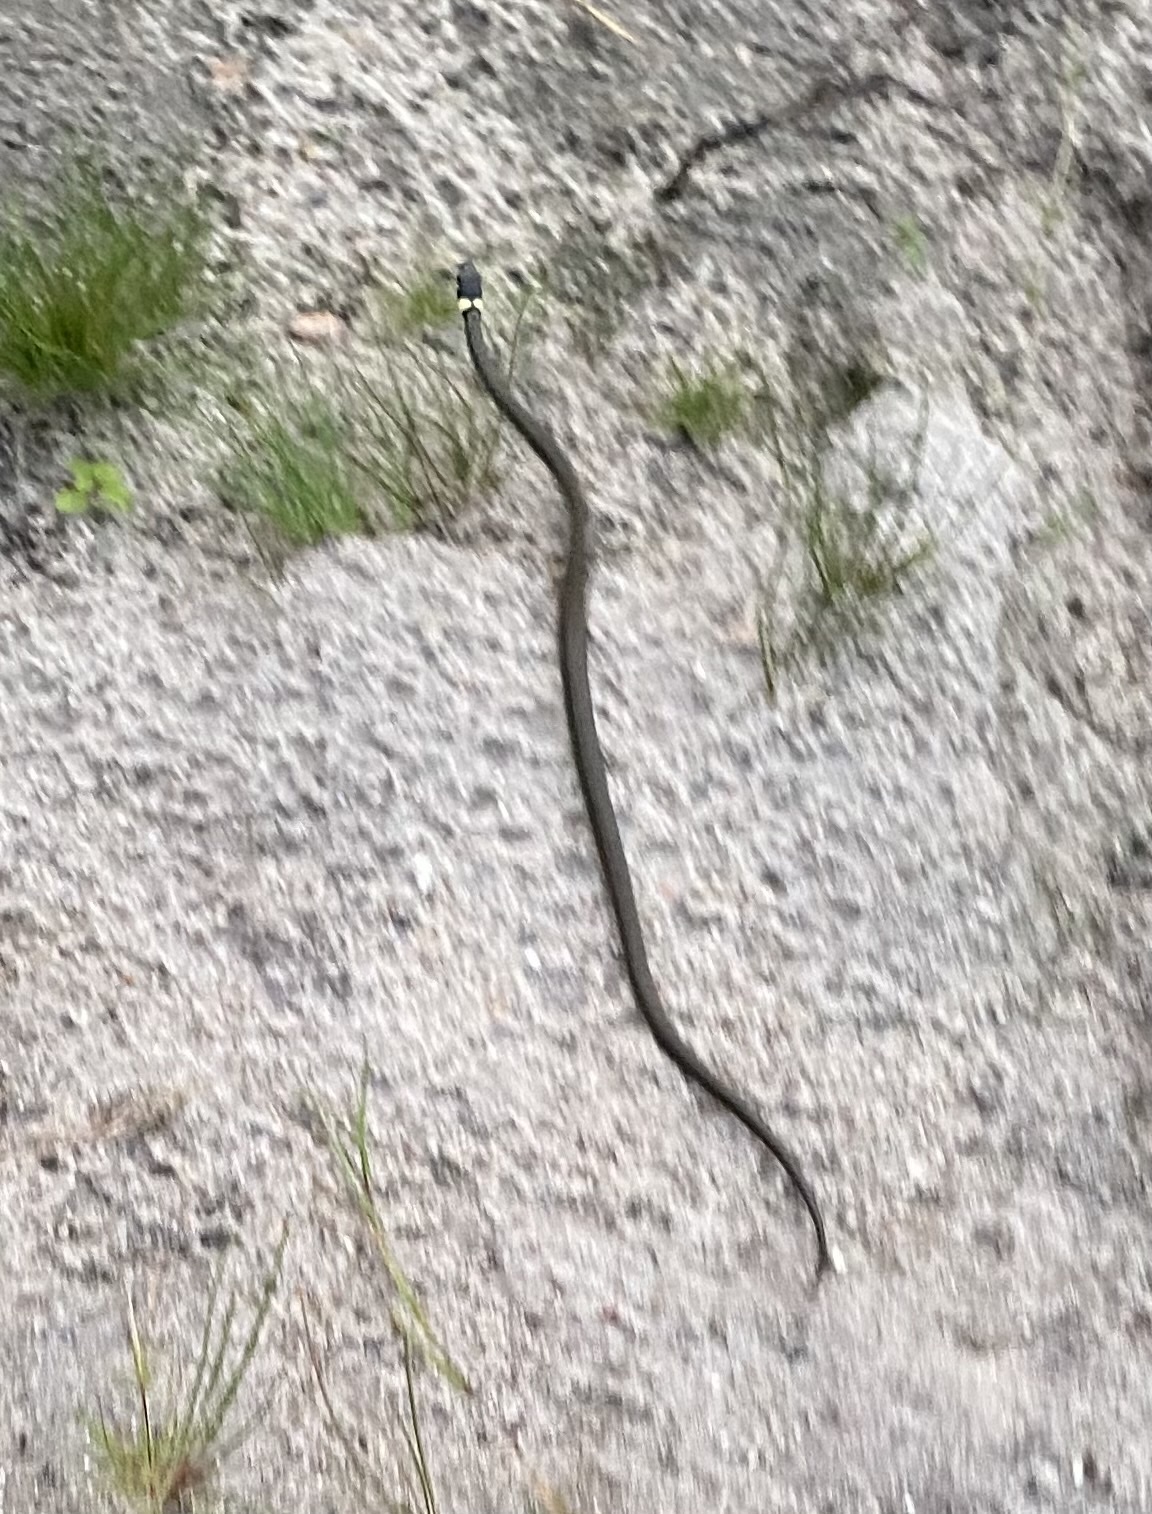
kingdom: Animalia
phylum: Chordata
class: Squamata
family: Colubridae
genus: Natrix
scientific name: Natrix natrix
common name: Grass snake
